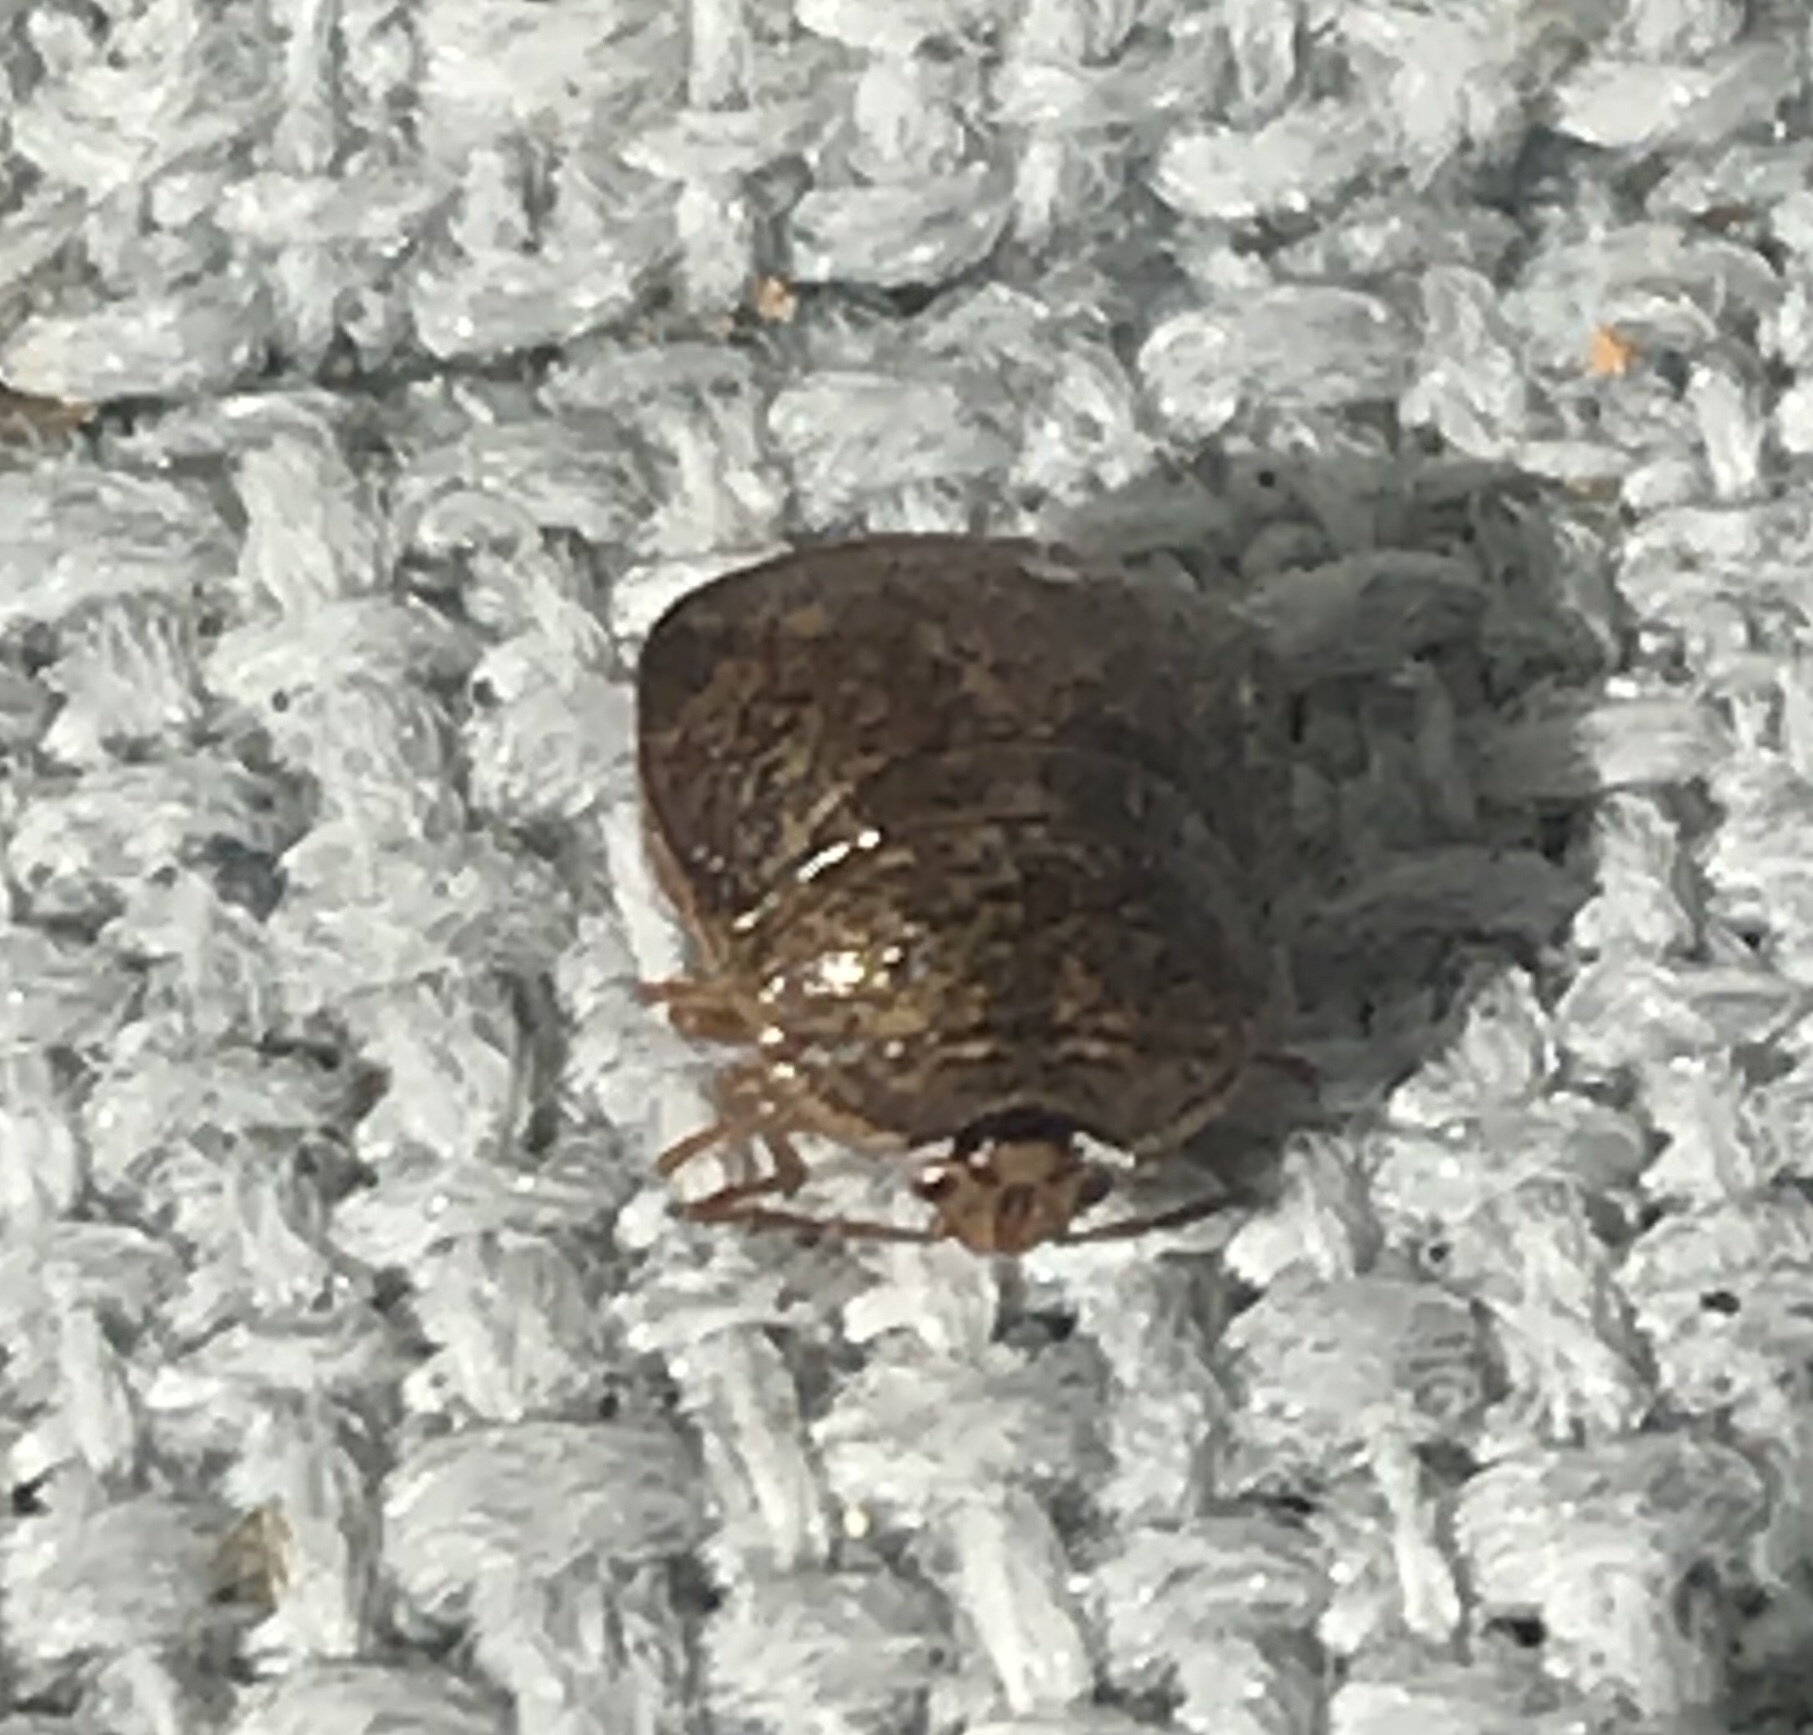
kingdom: Animalia
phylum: Arthropoda
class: Insecta
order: Hemiptera
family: Plataspidae
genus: Megacopta
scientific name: Megacopta cribraria
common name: Bean plataspid
